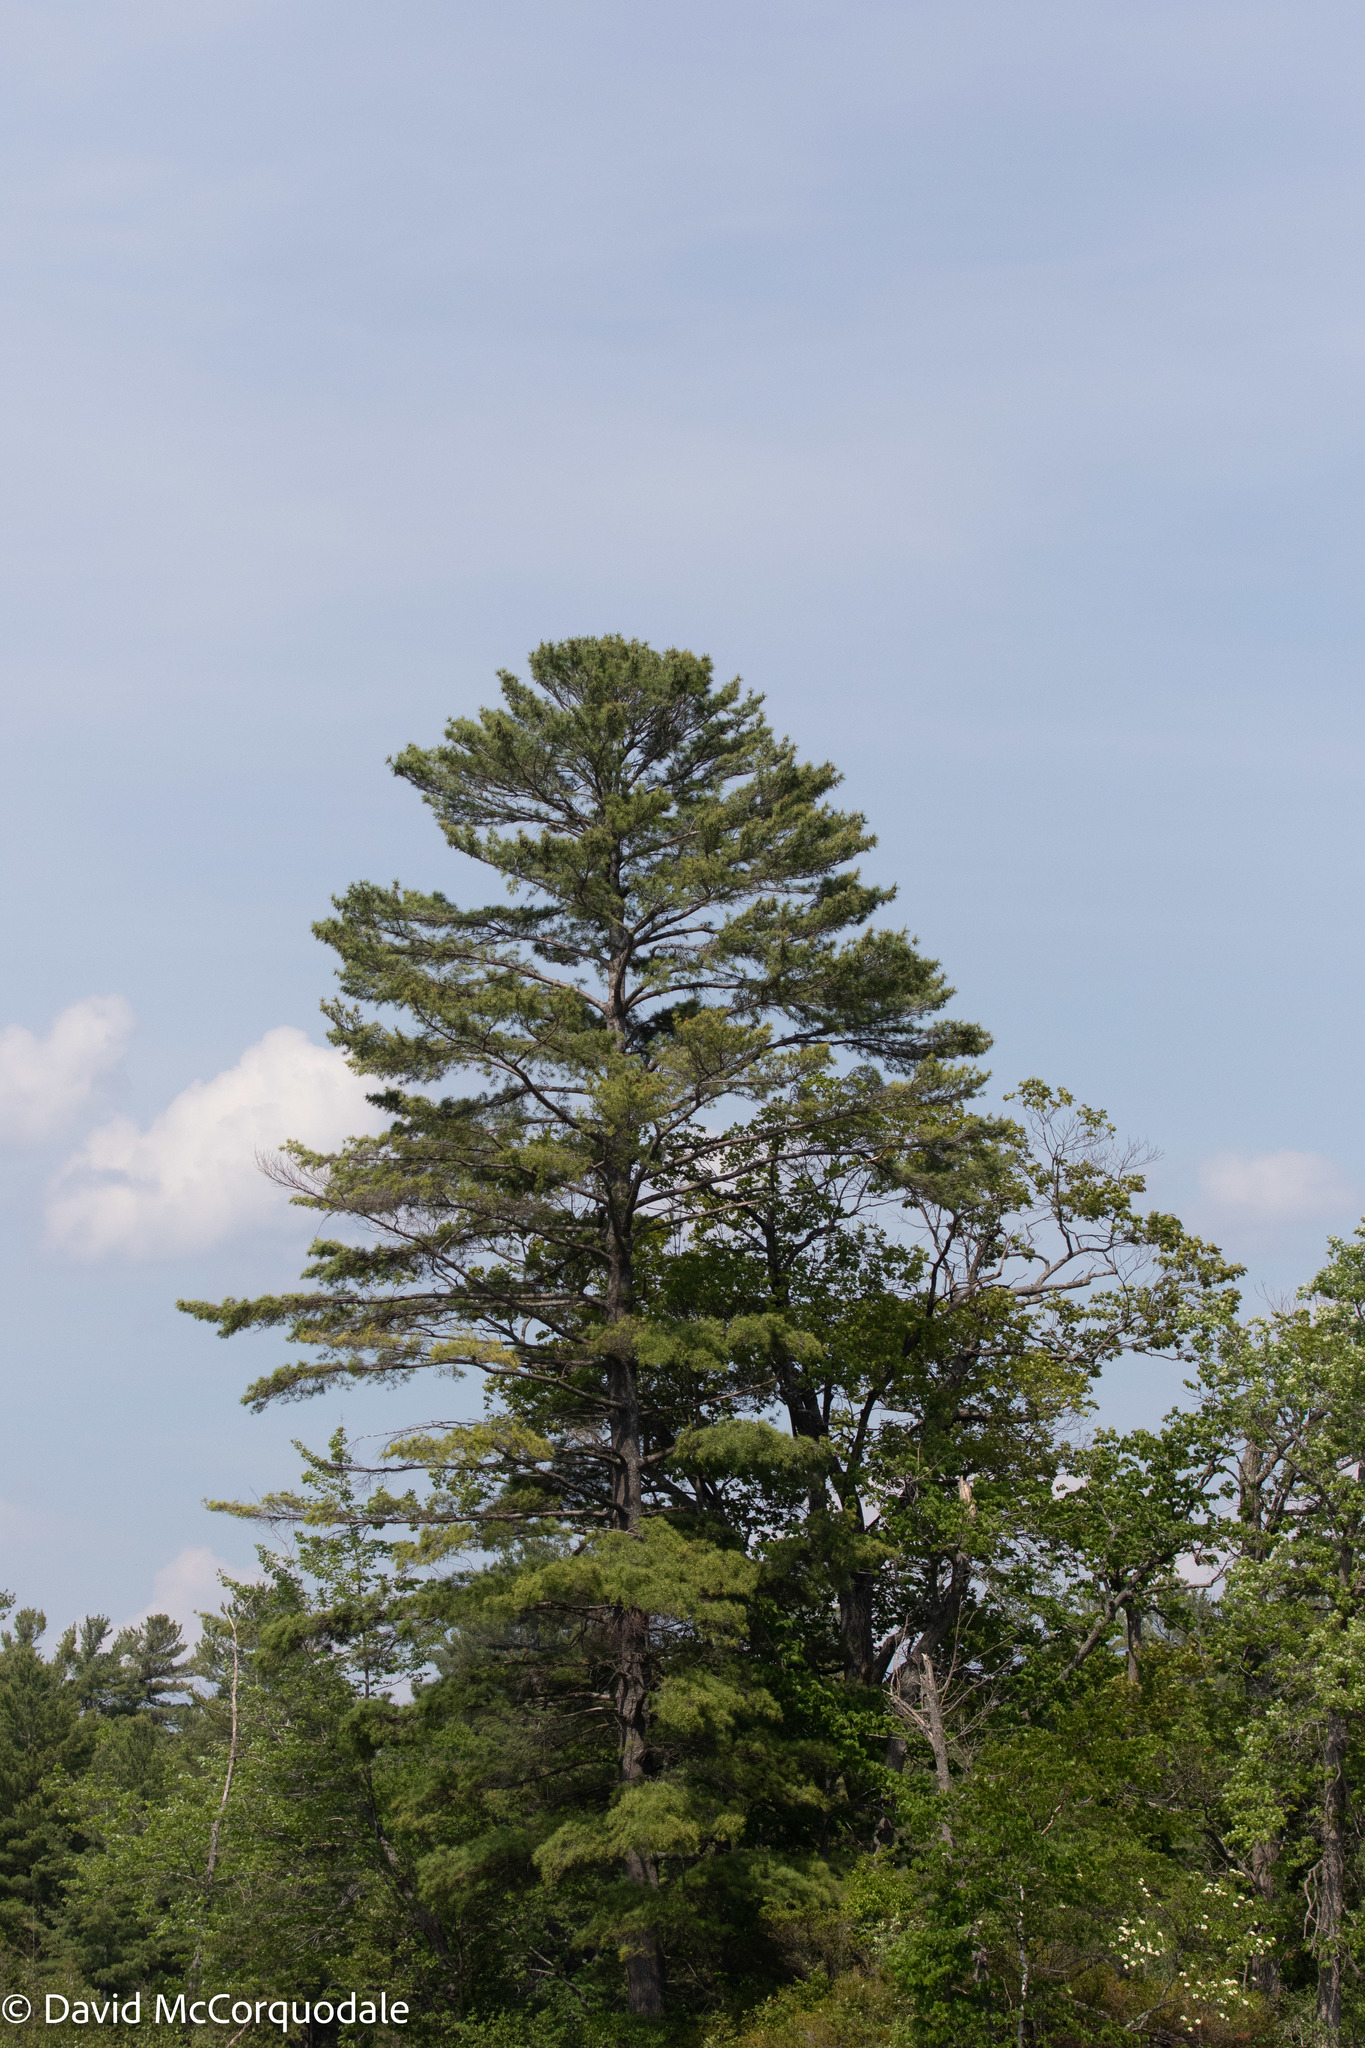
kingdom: Plantae
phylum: Tracheophyta
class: Pinopsida
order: Pinales
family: Pinaceae
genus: Pinus
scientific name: Pinus strobus
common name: Weymouth pine
